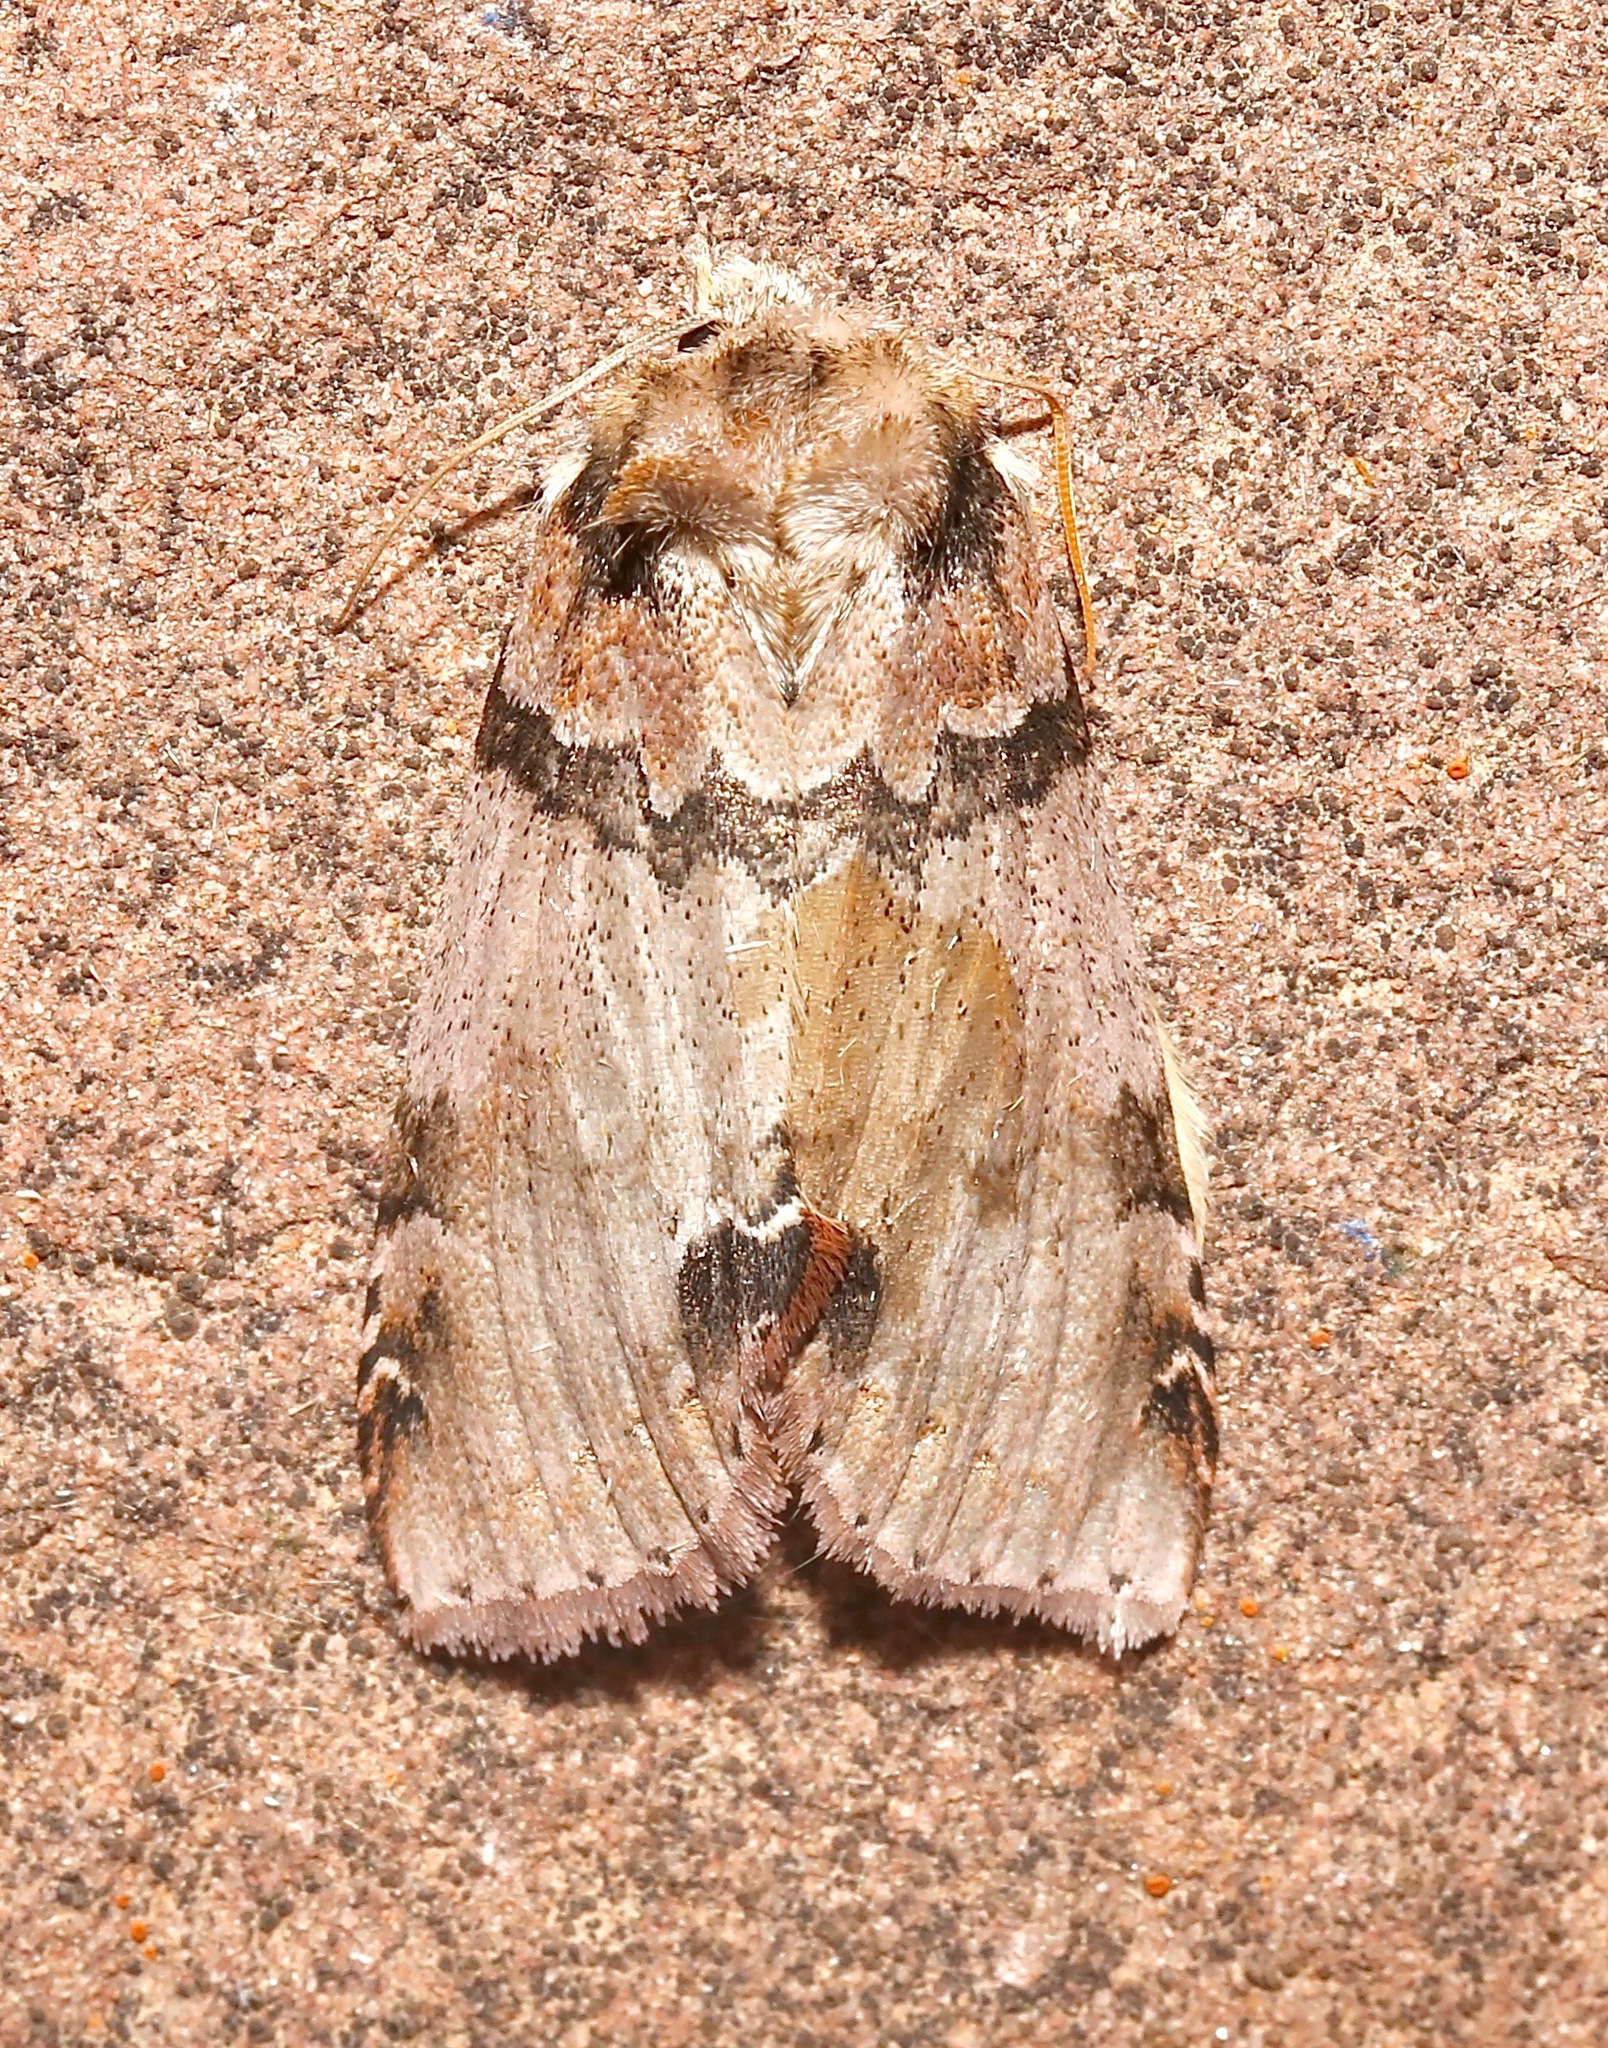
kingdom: Animalia
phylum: Arthropoda
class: Insecta
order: Lepidoptera
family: Drepanidae
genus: Pseudothyatira
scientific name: Pseudothyatira cymatophoroides
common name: Tufted thyatirid moth
